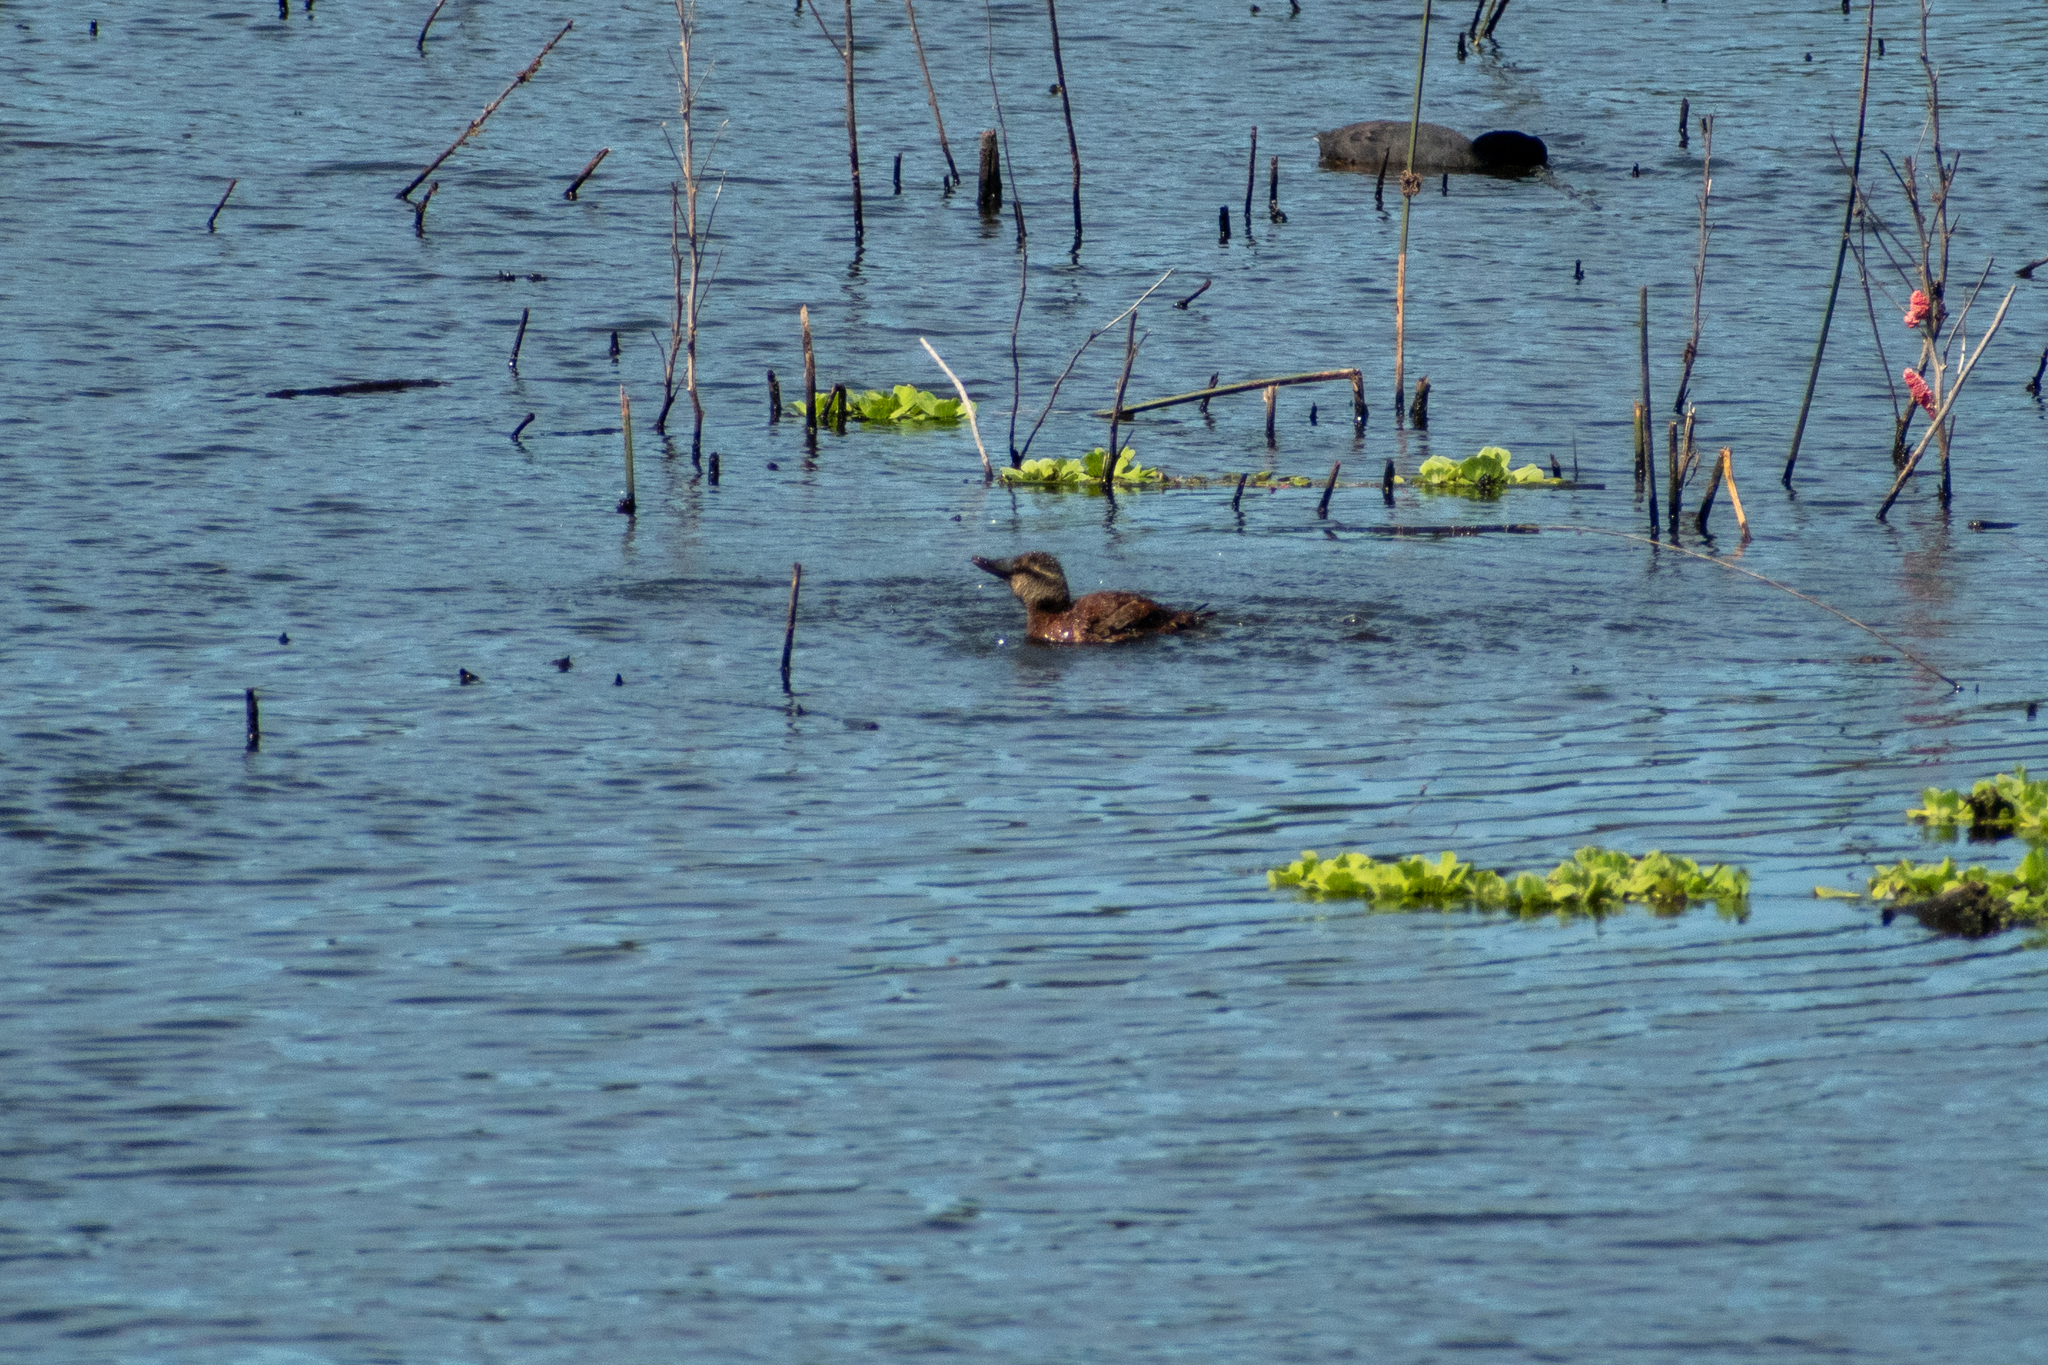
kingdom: Animalia
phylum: Chordata
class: Aves
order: Anseriformes
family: Anatidae
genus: Oxyura
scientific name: Oxyura vittata
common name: Lake duck
